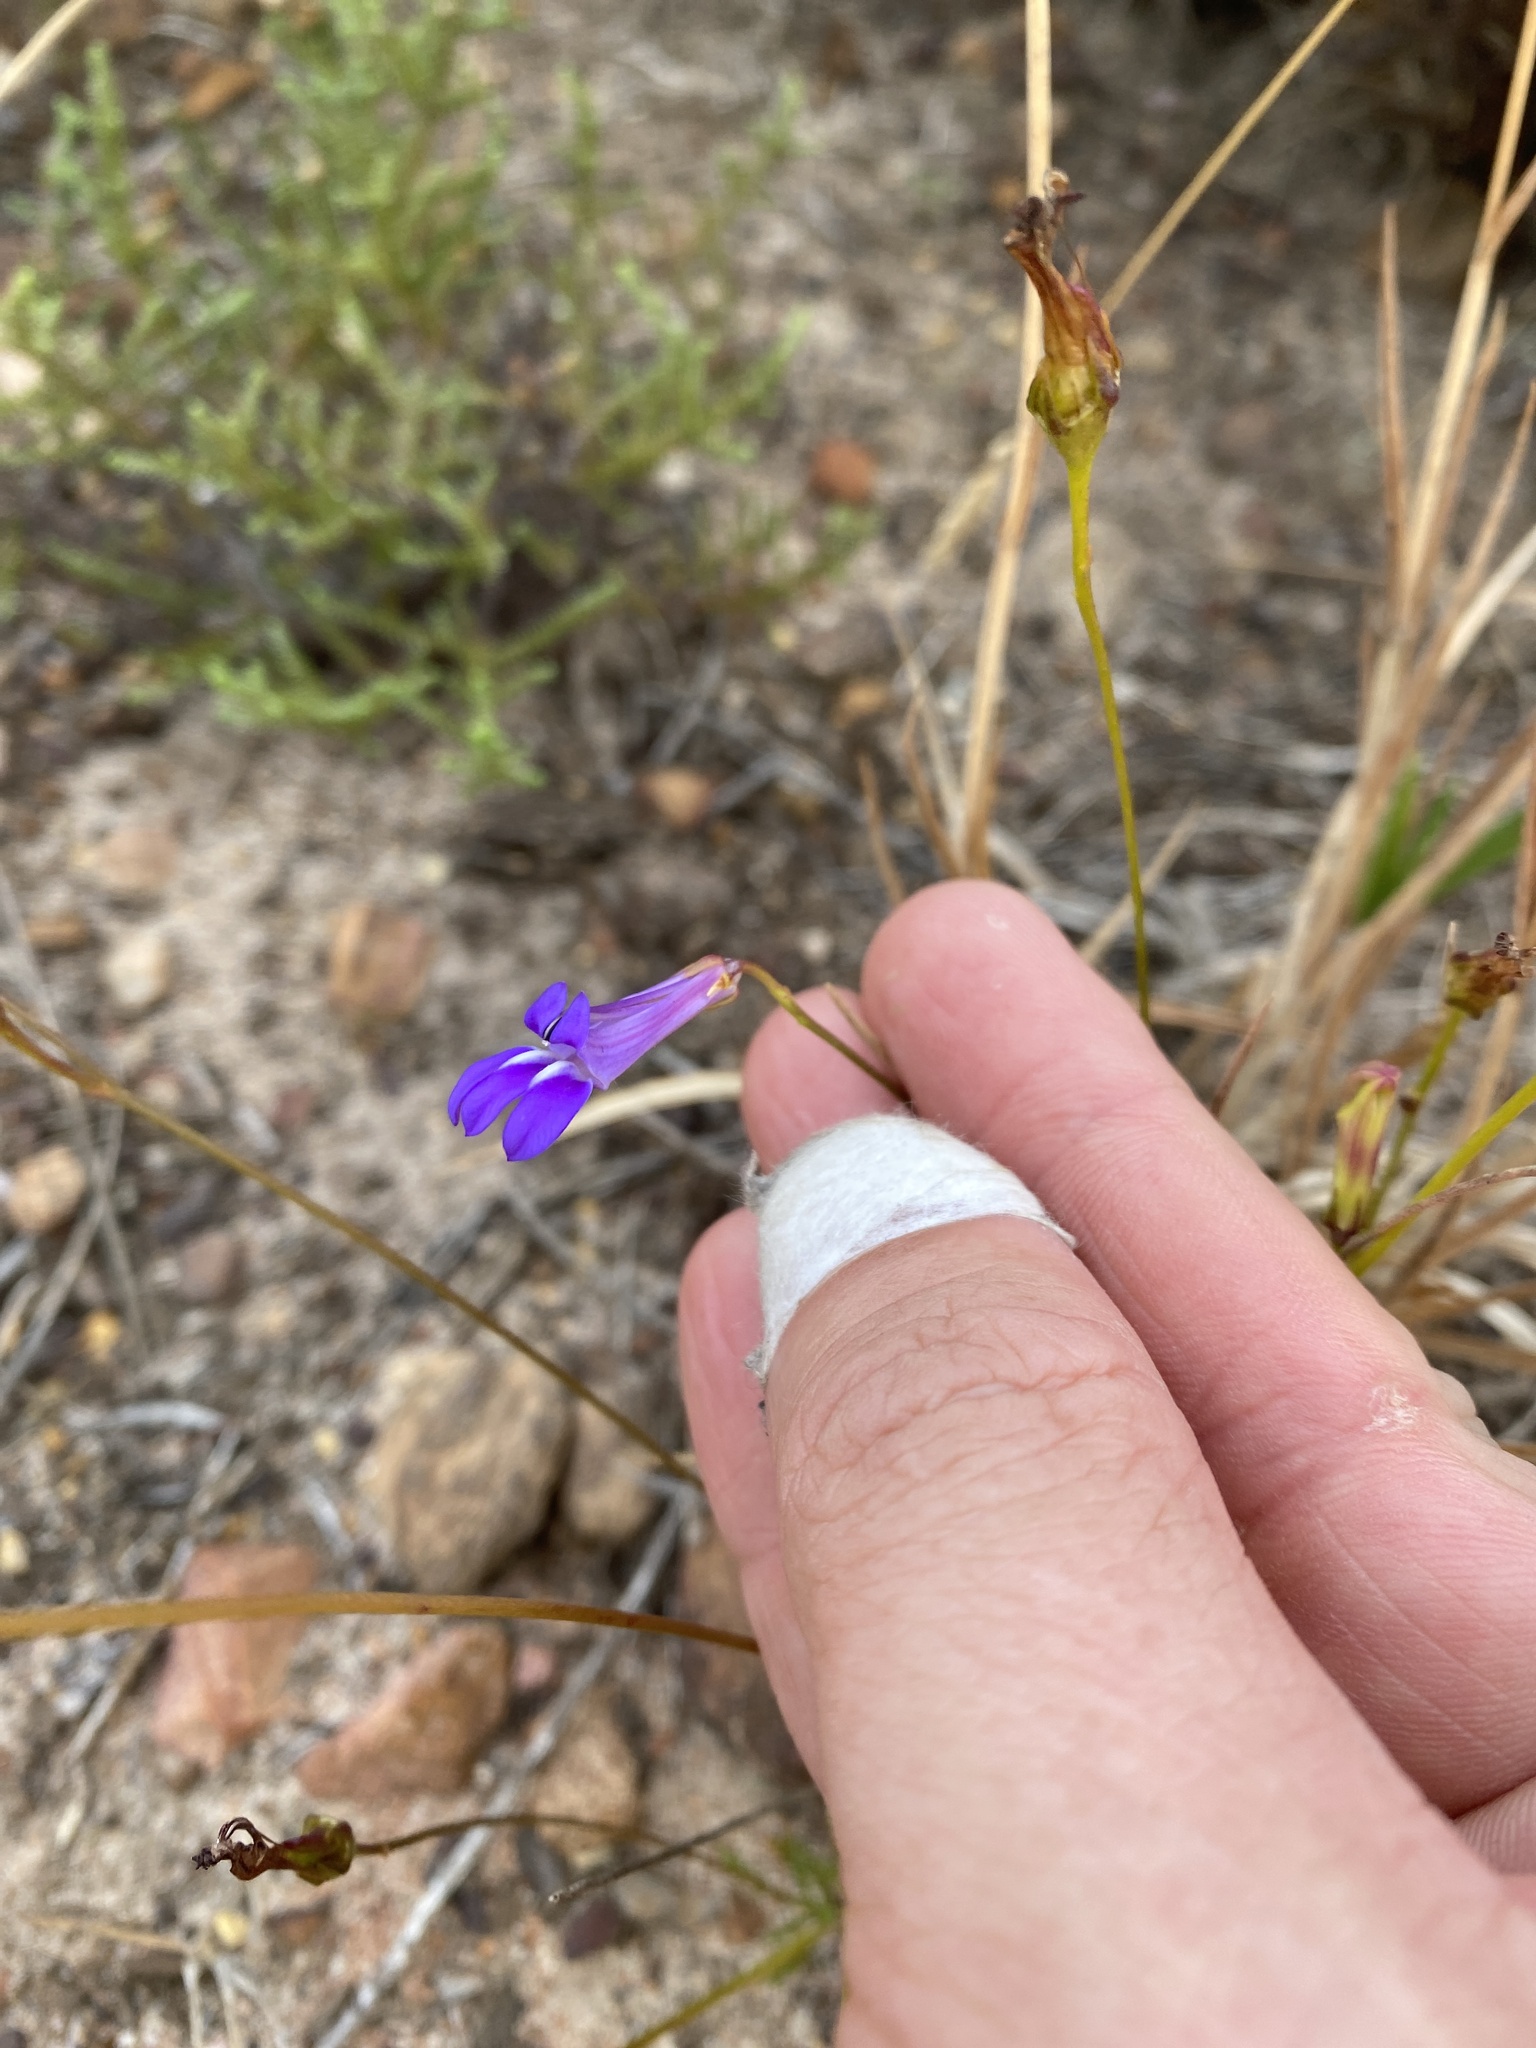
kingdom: Plantae
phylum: Tracheophyta
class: Magnoliopsida
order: Asterales
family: Campanulaceae
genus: Lobelia
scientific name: Lobelia coronopifolia
